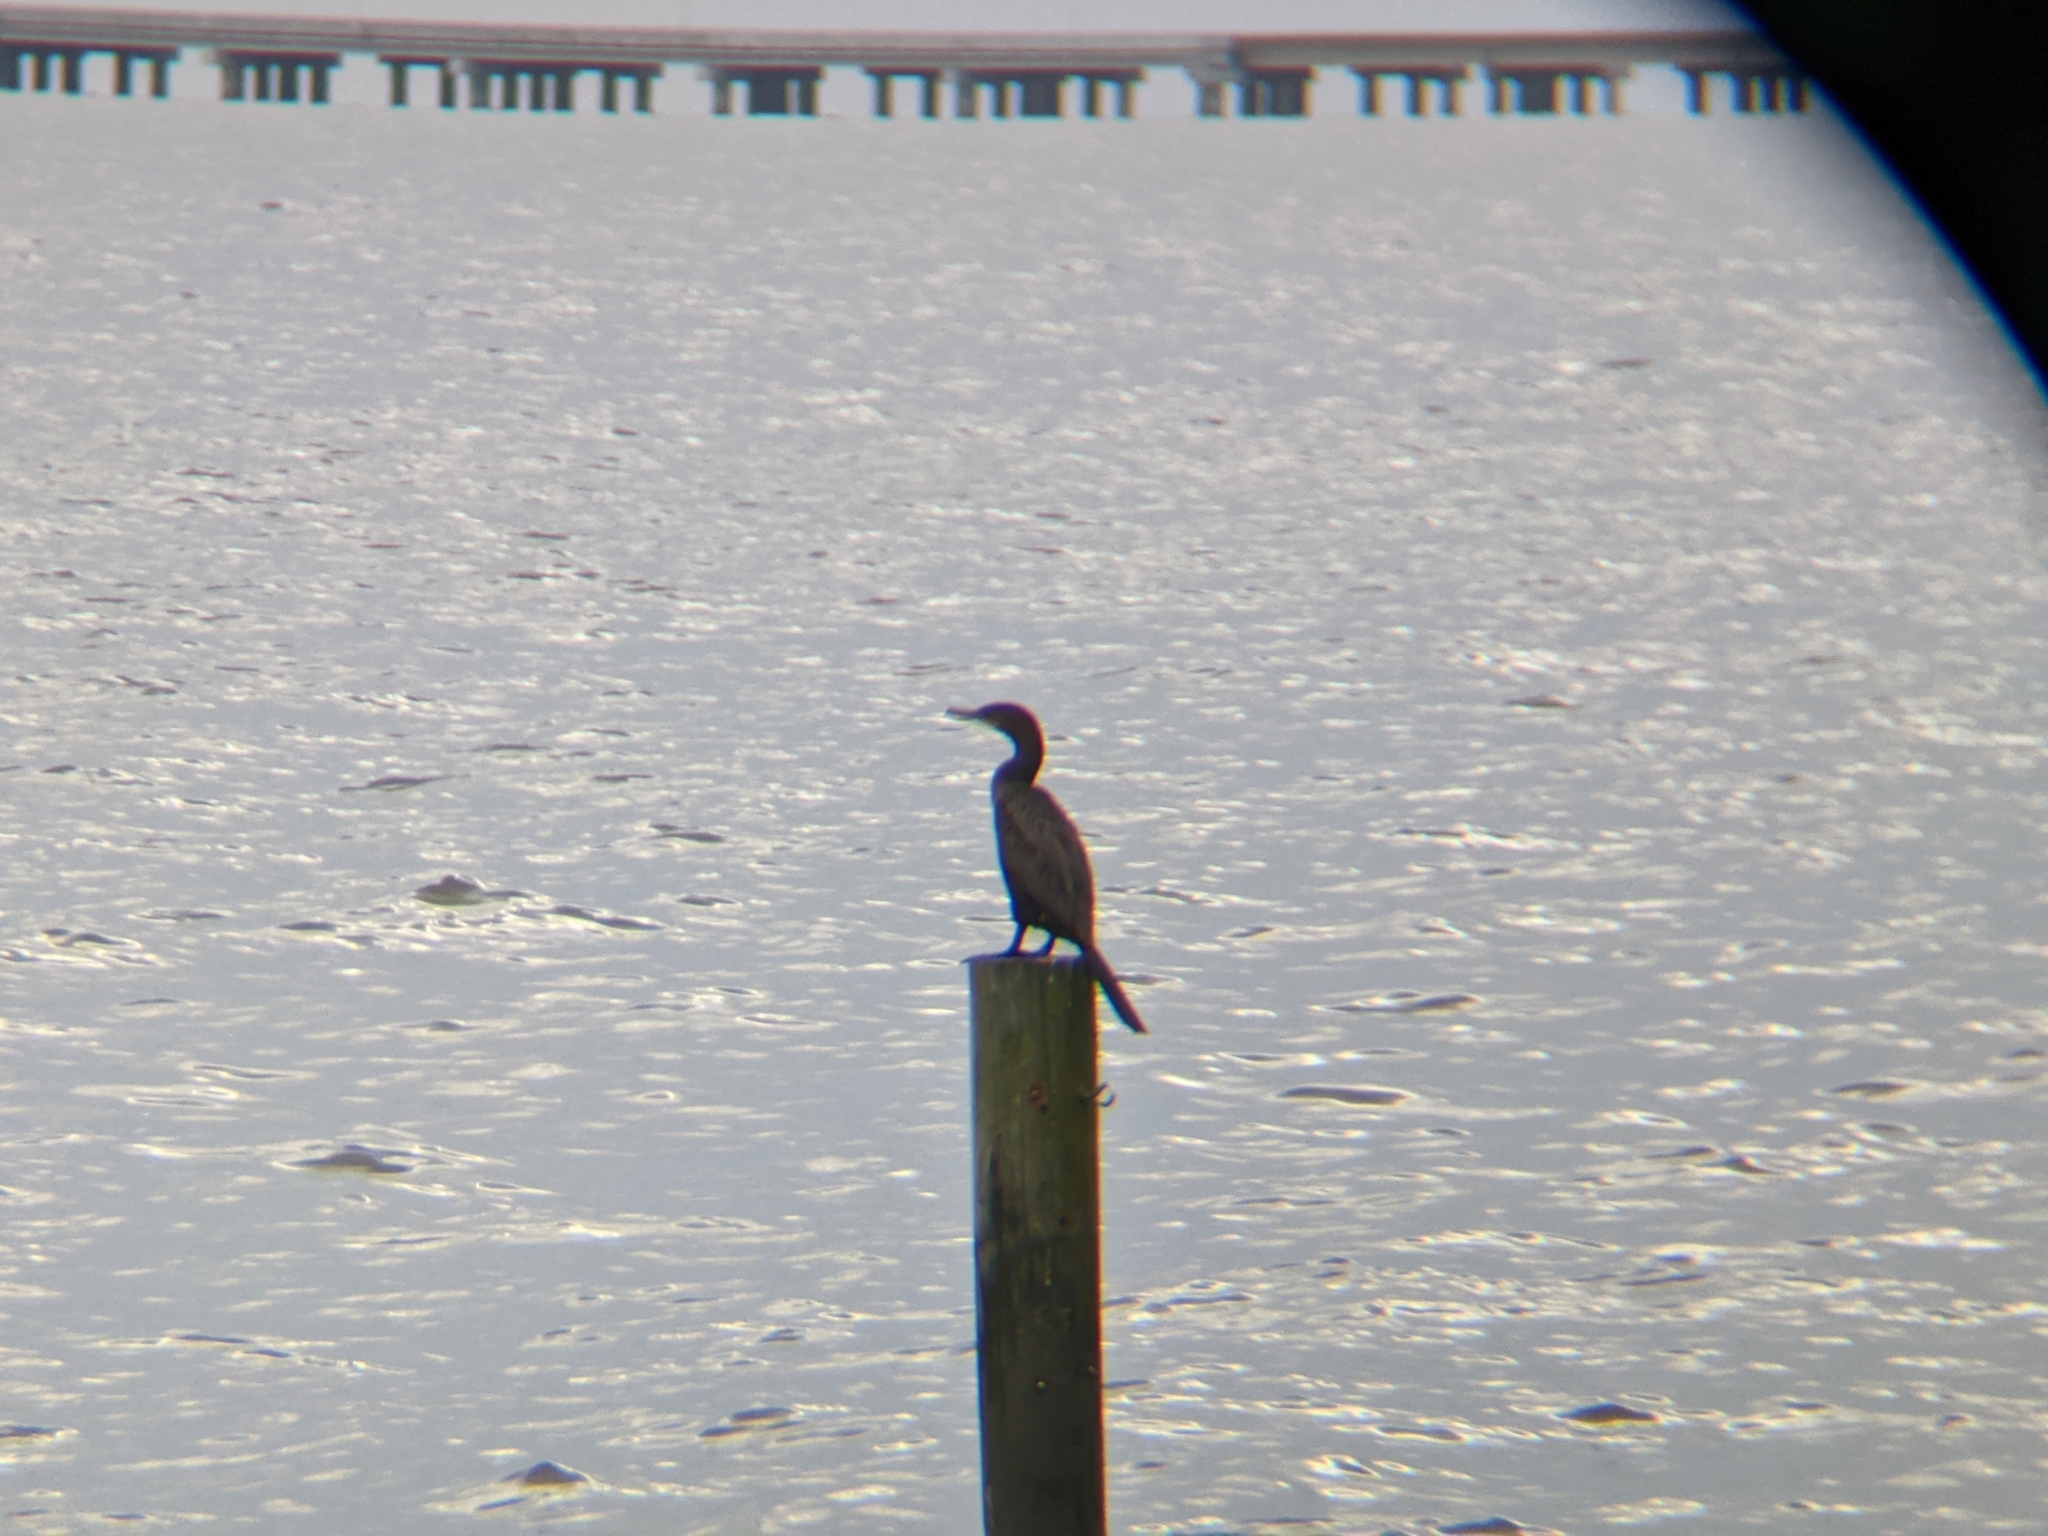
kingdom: Animalia
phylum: Chordata
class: Aves
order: Suliformes
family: Phalacrocoracidae
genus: Phalacrocorax
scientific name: Phalacrocorax brasilianus
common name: Neotropic cormorant
